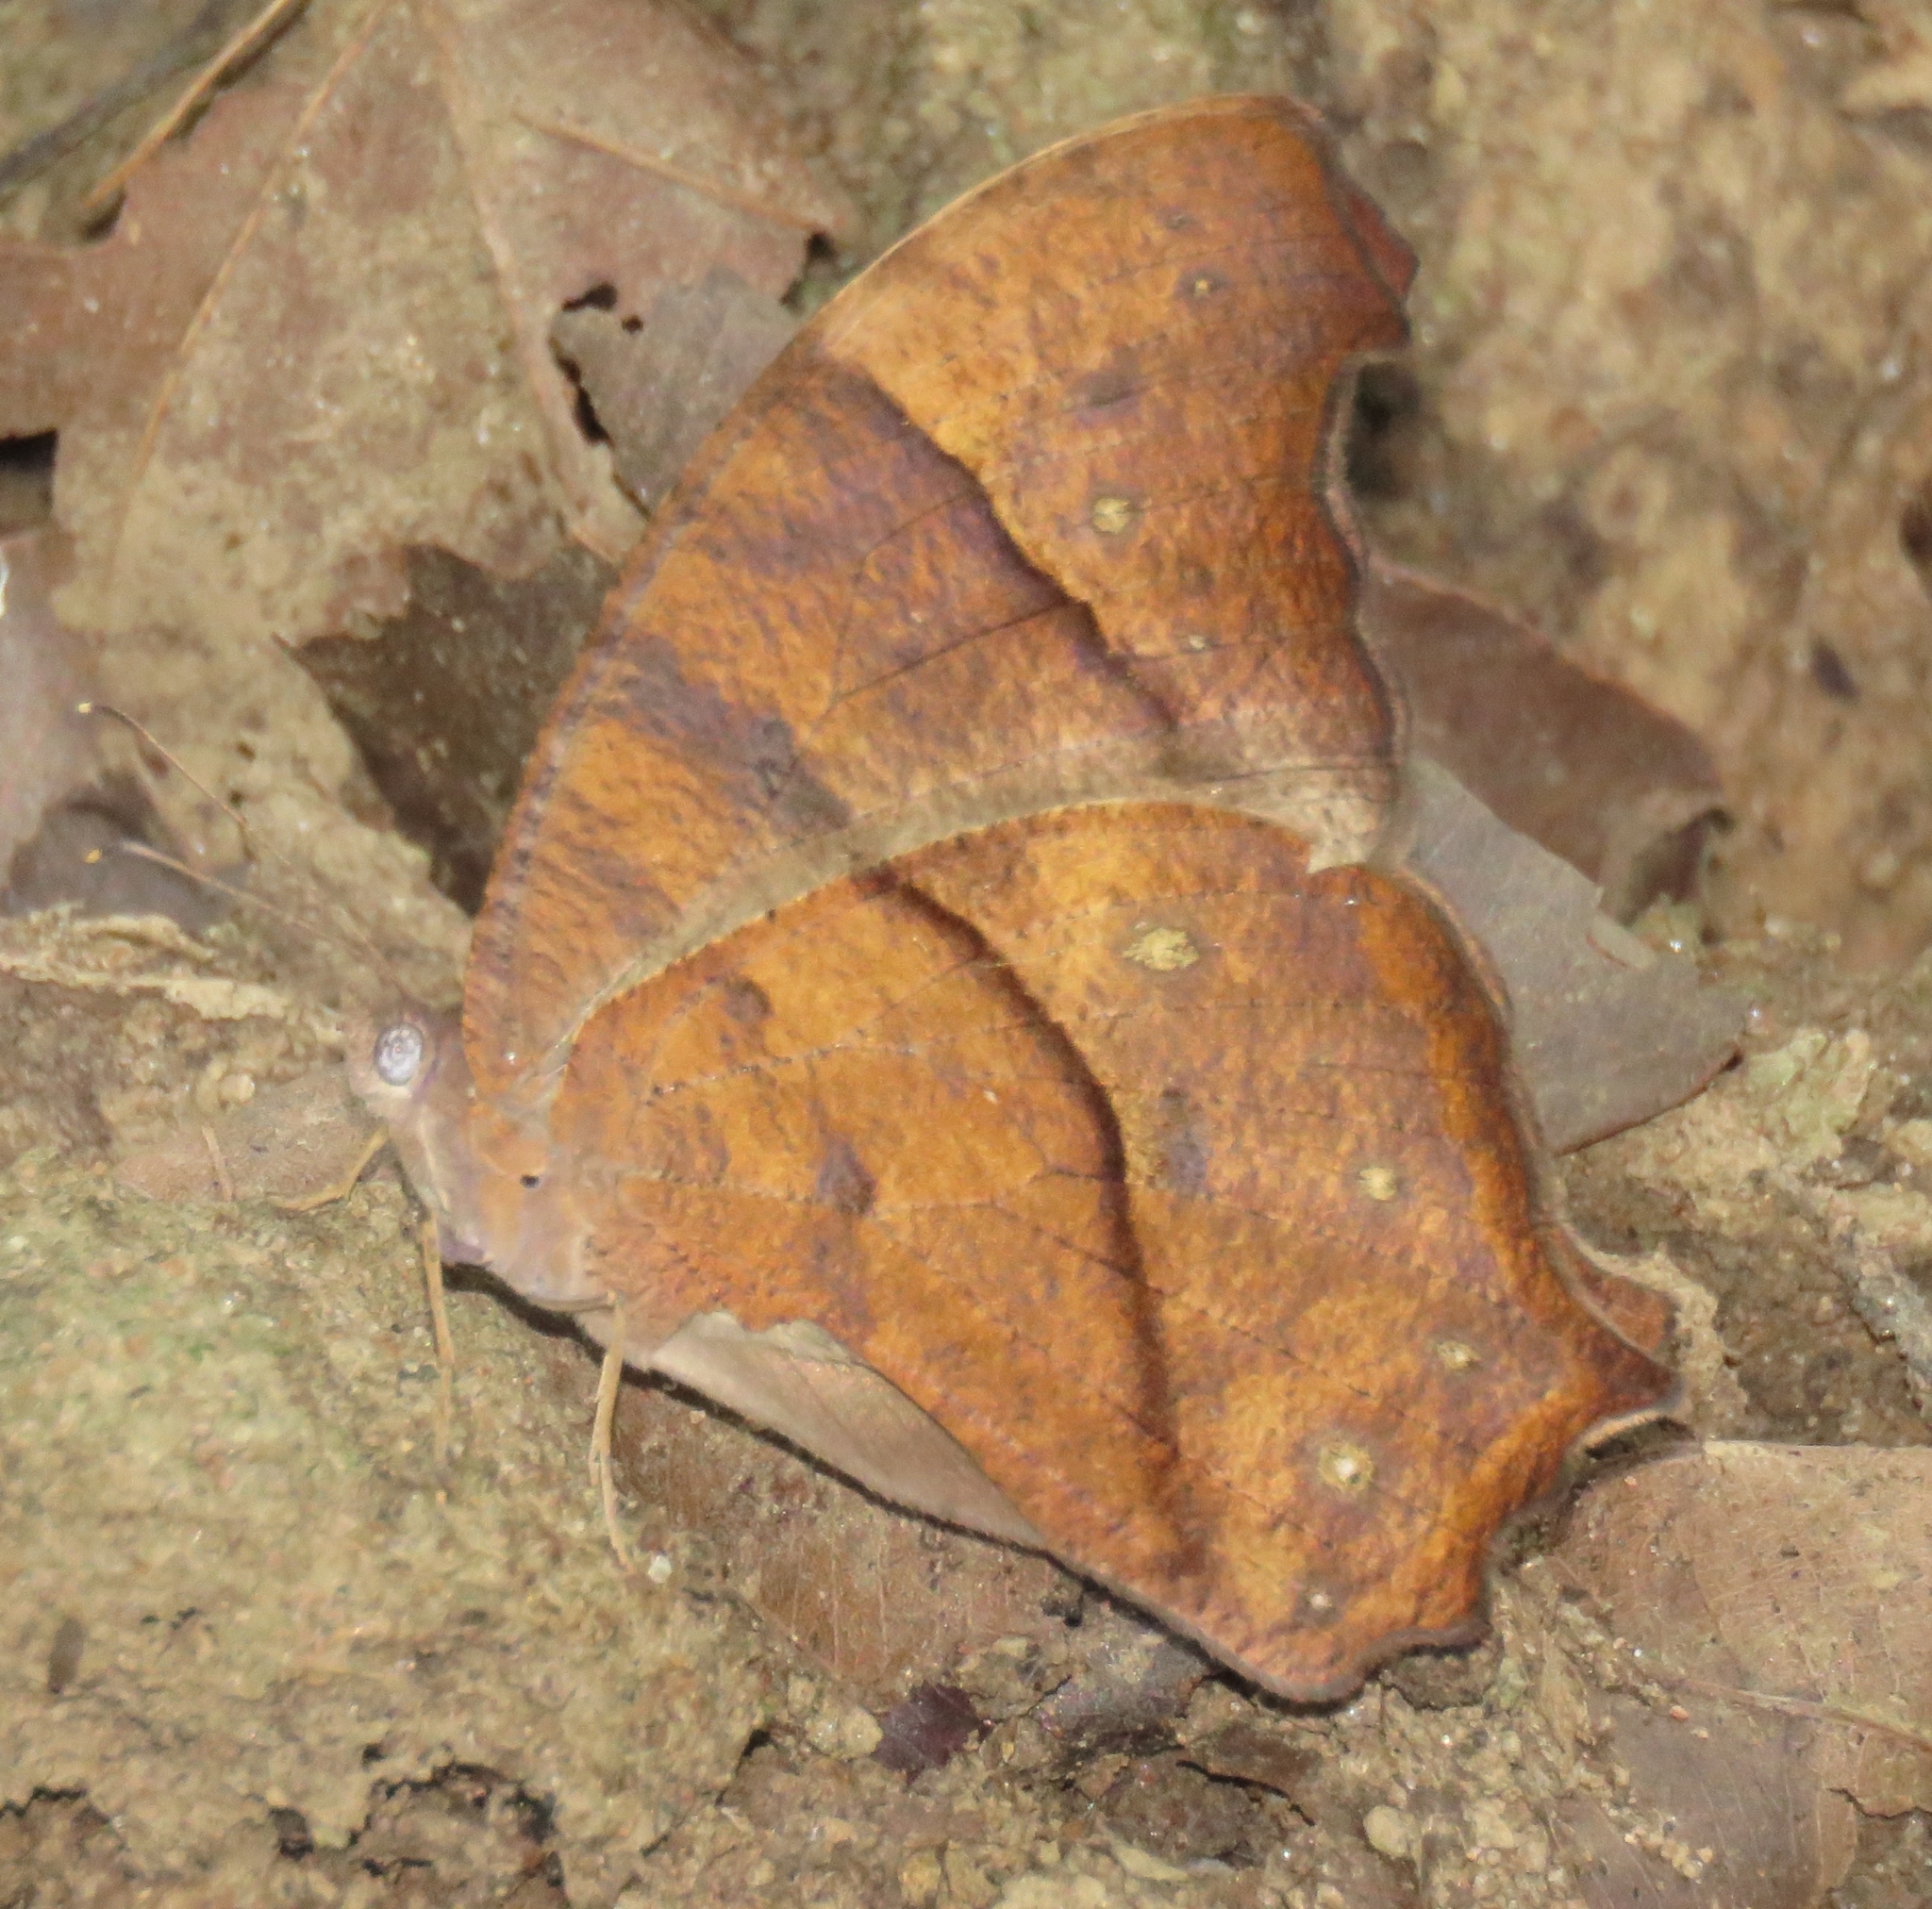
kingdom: Animalia
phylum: Arthropoda
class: Insecta
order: Lepidoptera
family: Nymphalidae
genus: Melanitis
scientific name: Melanitis leda
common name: Twilight brown
